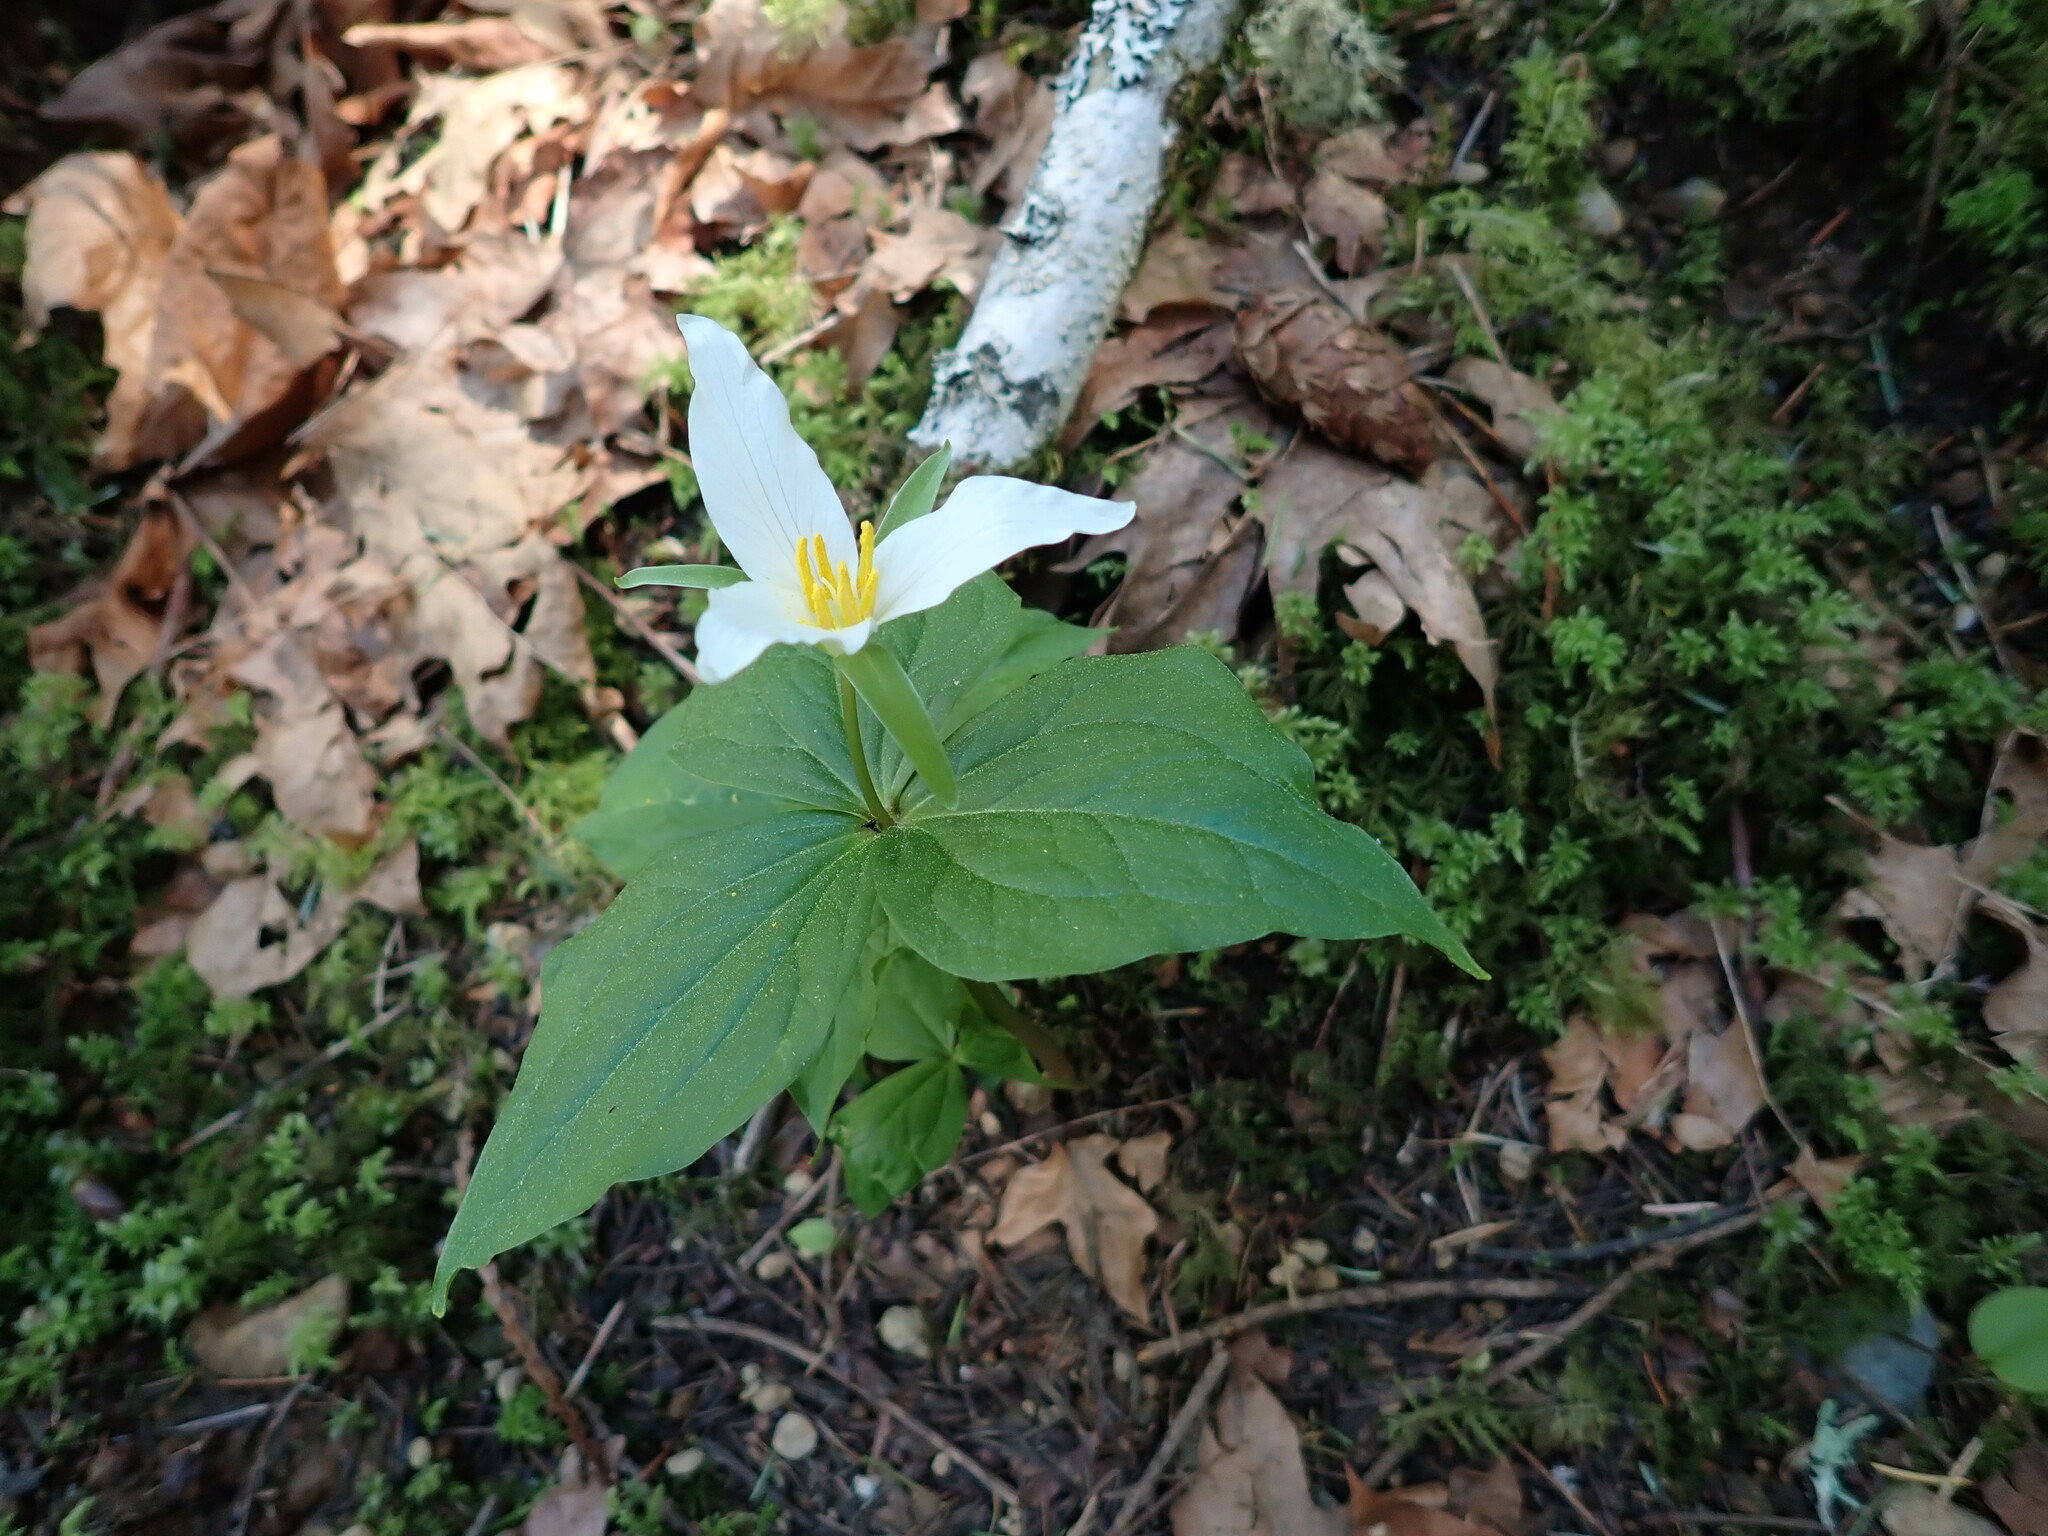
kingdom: Plantae
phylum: Tracheophyta
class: Liliopsida
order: Liliales
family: Melanthiaceae
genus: Trillium
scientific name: Trillium ovatum
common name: Pacific trillium
